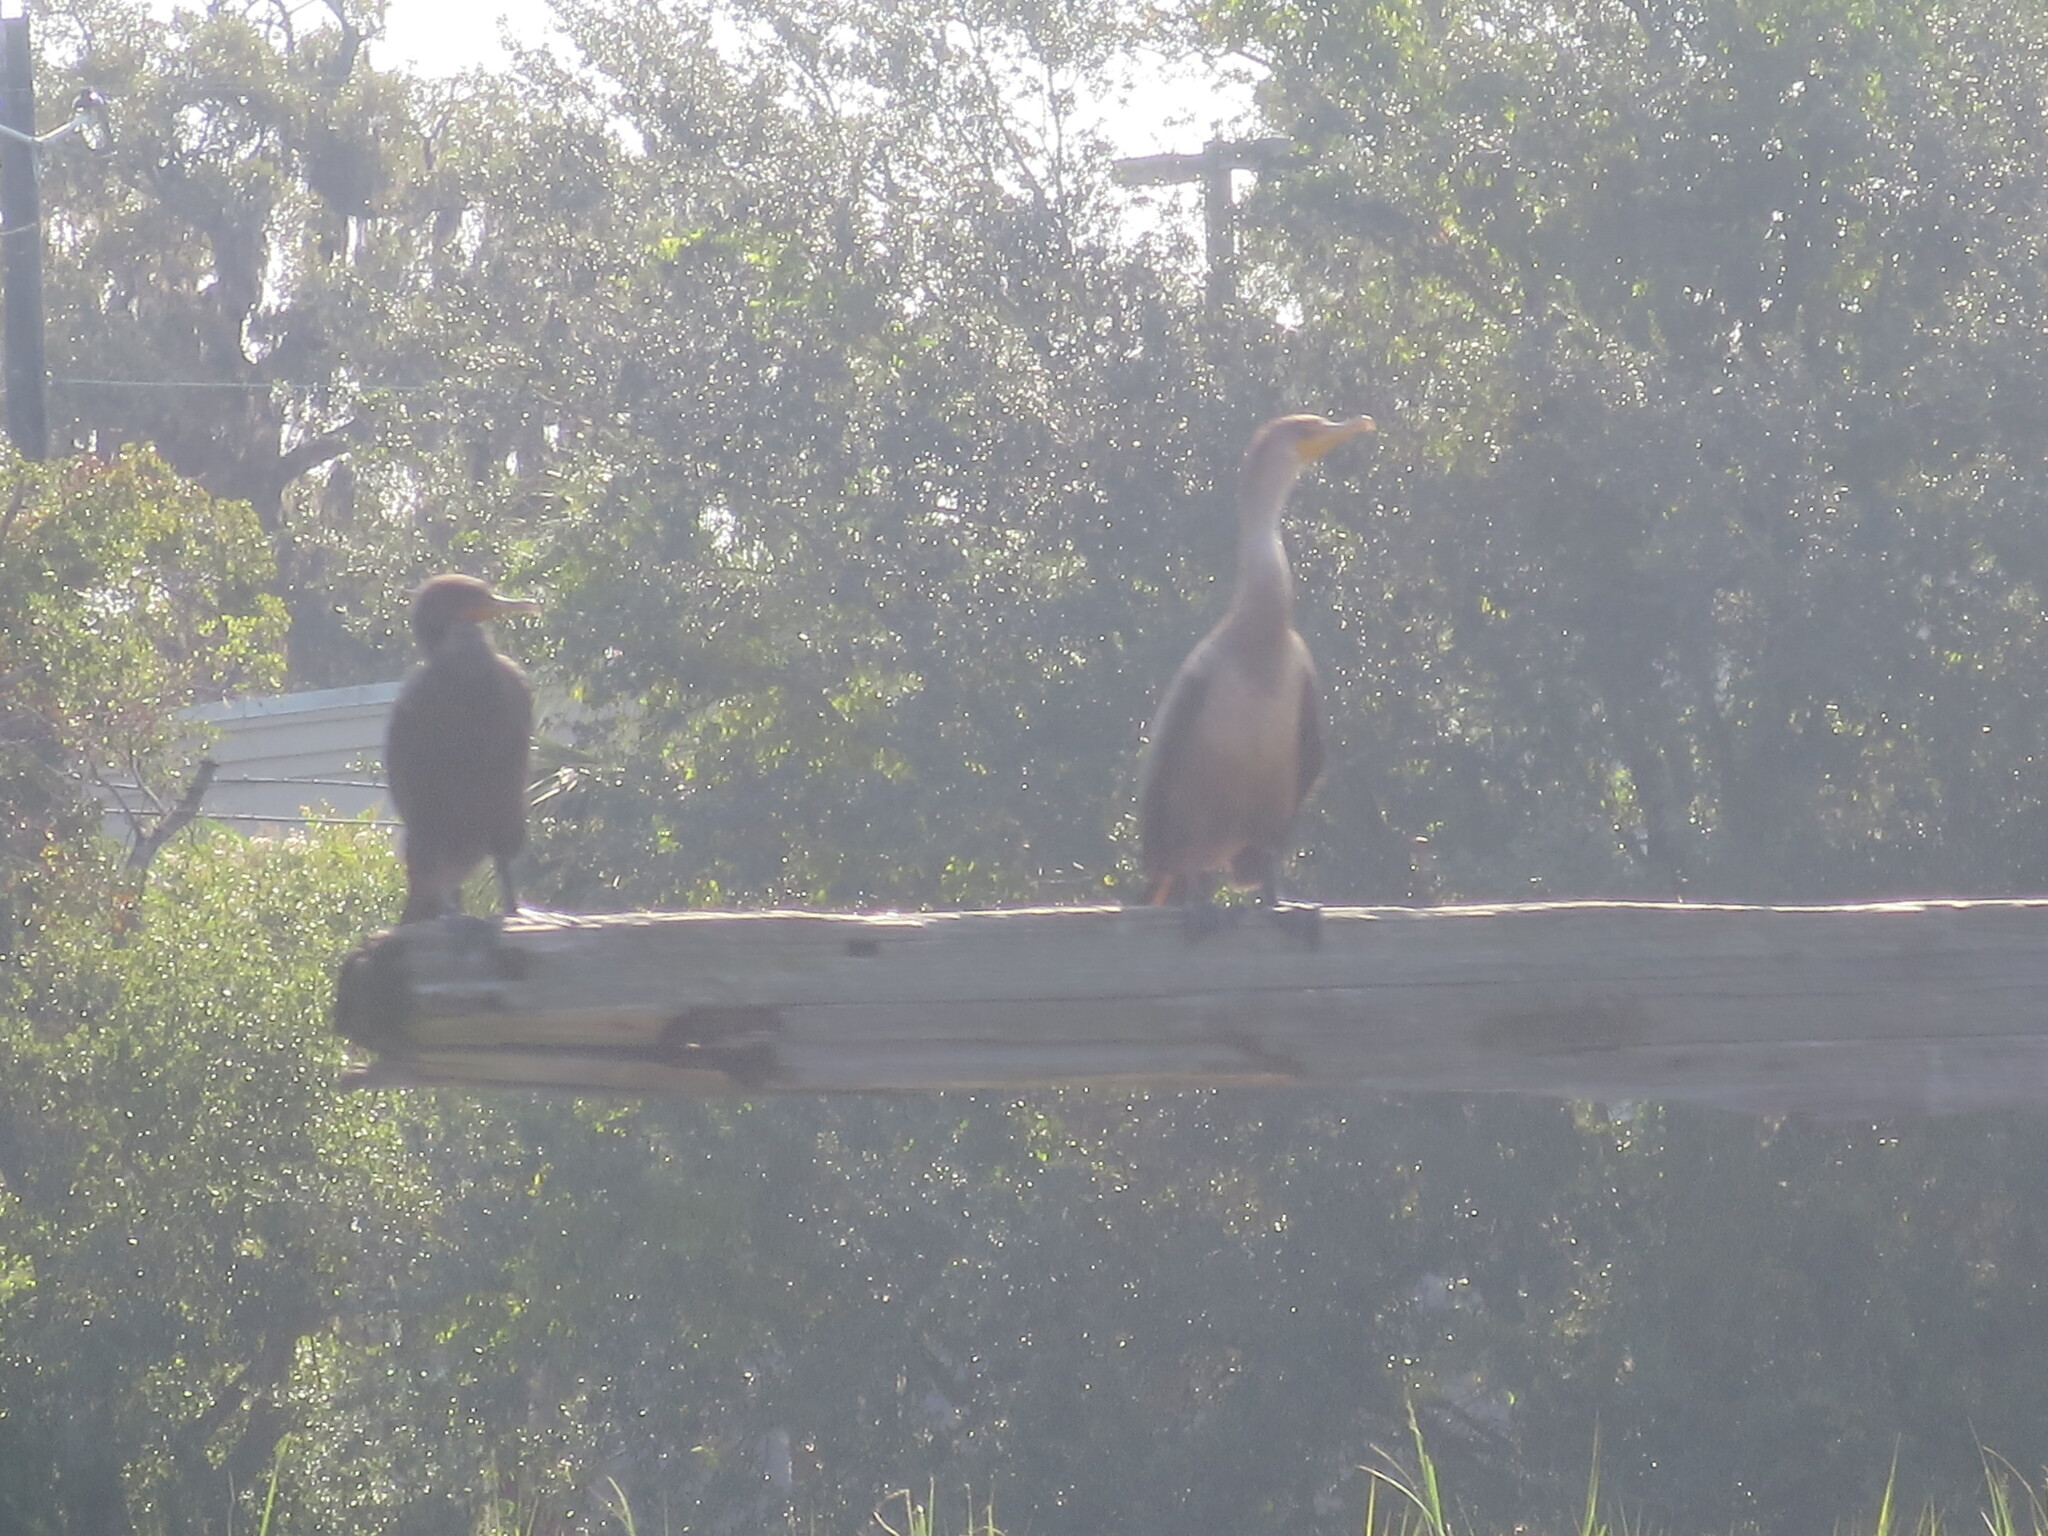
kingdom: Animalia
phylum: Chordata
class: Aves
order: Suliformes
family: Phalacrocoracidae
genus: Phalacrocorax
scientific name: Phalacrocorax auritus
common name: Double-crested cormorant
